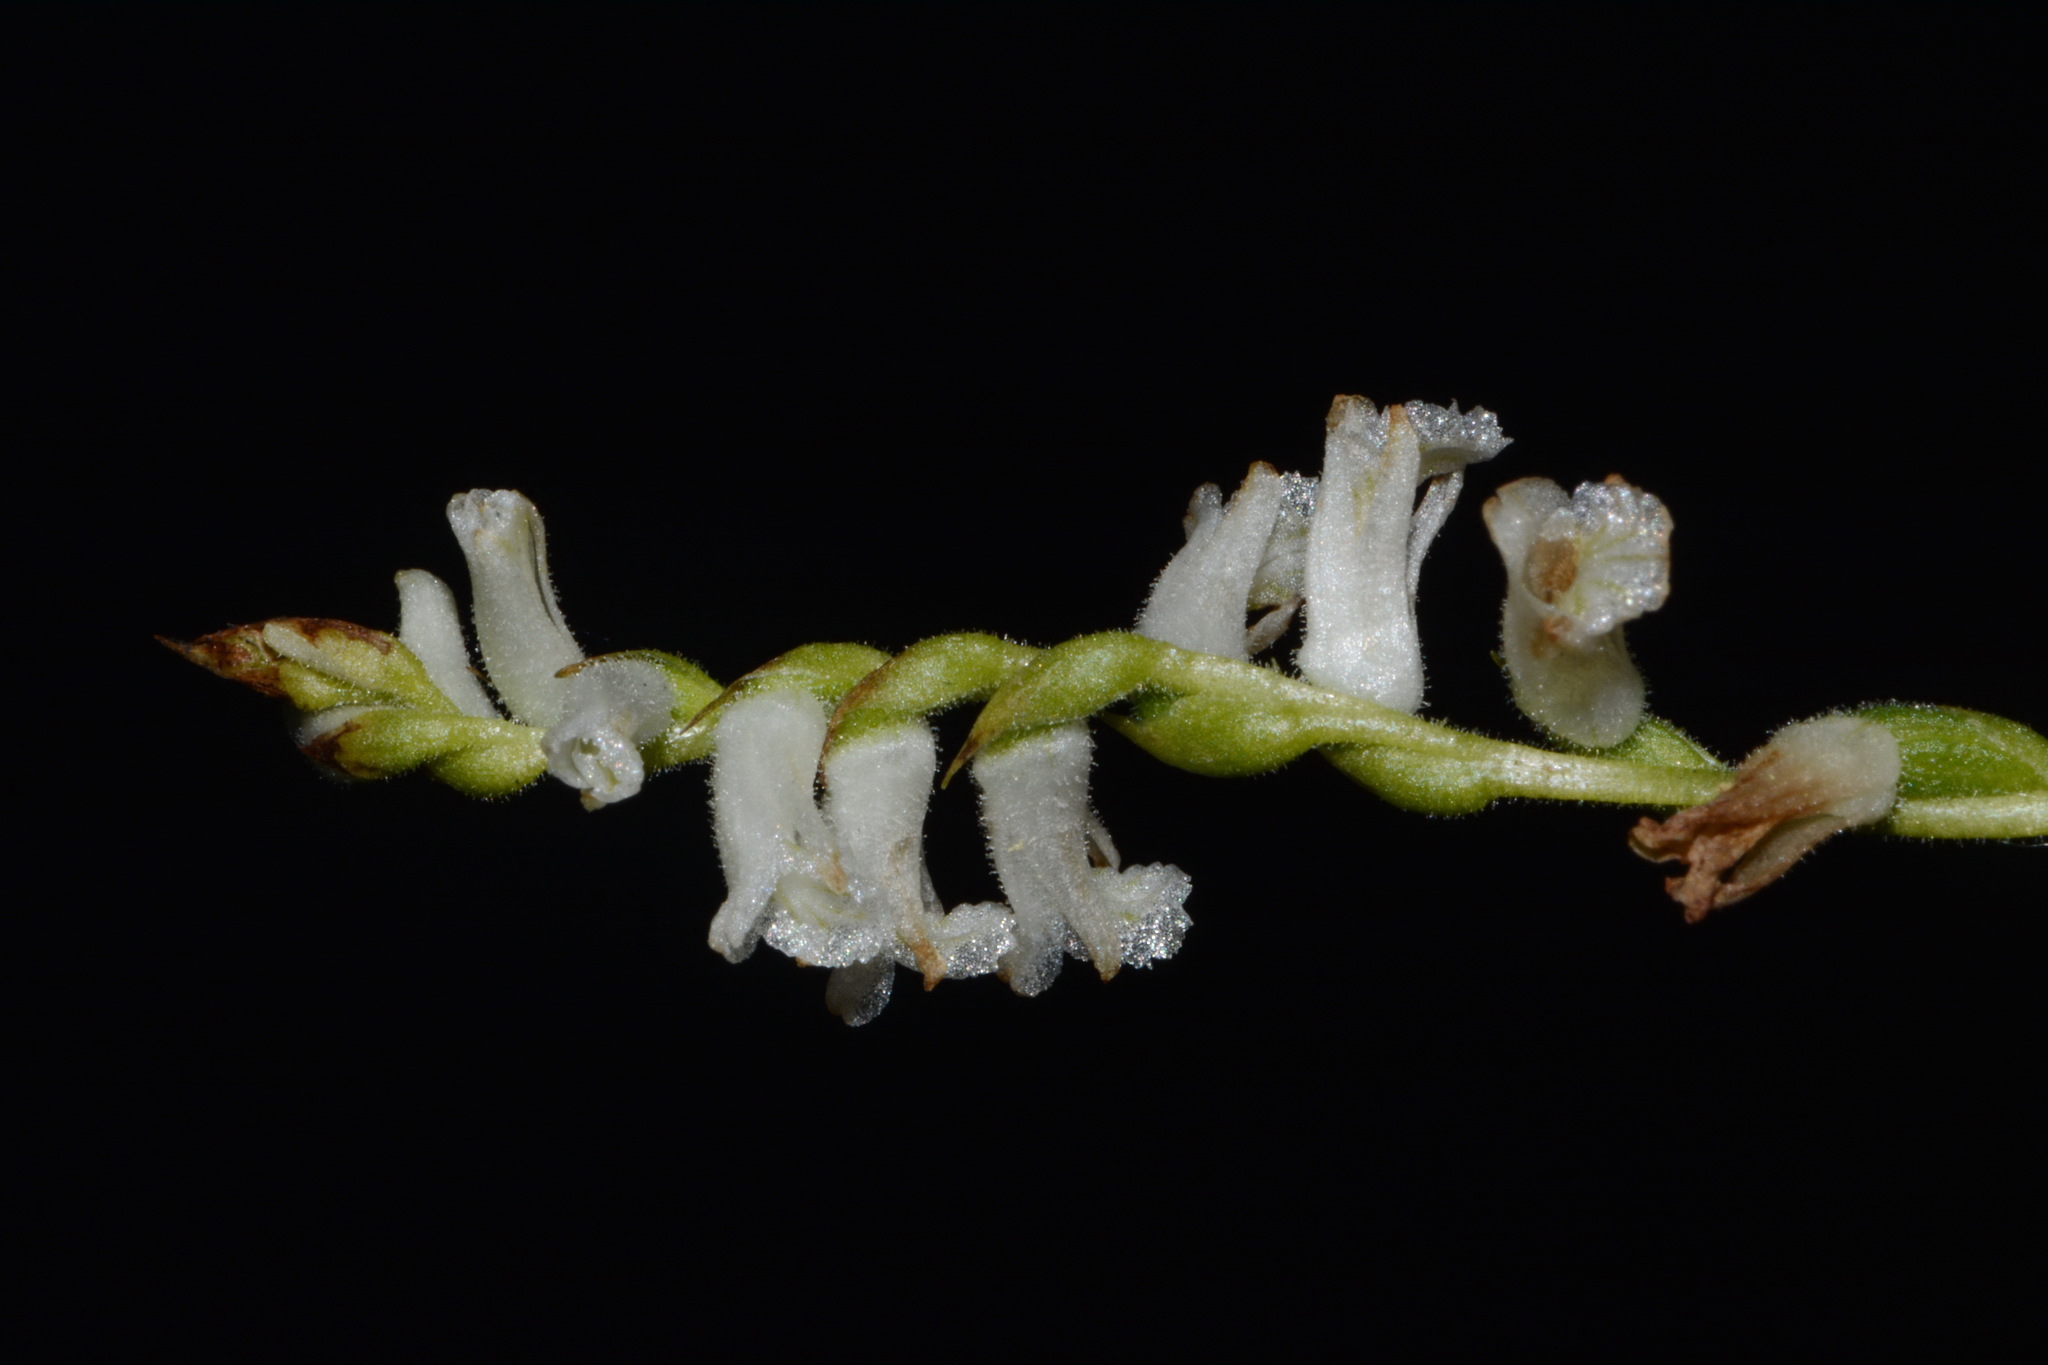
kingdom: Plantae
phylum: Tracheophyta
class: Liliopsida
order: Asparagales
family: Orchidaceae
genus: Spiranthes
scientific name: Spiranthes praecox
